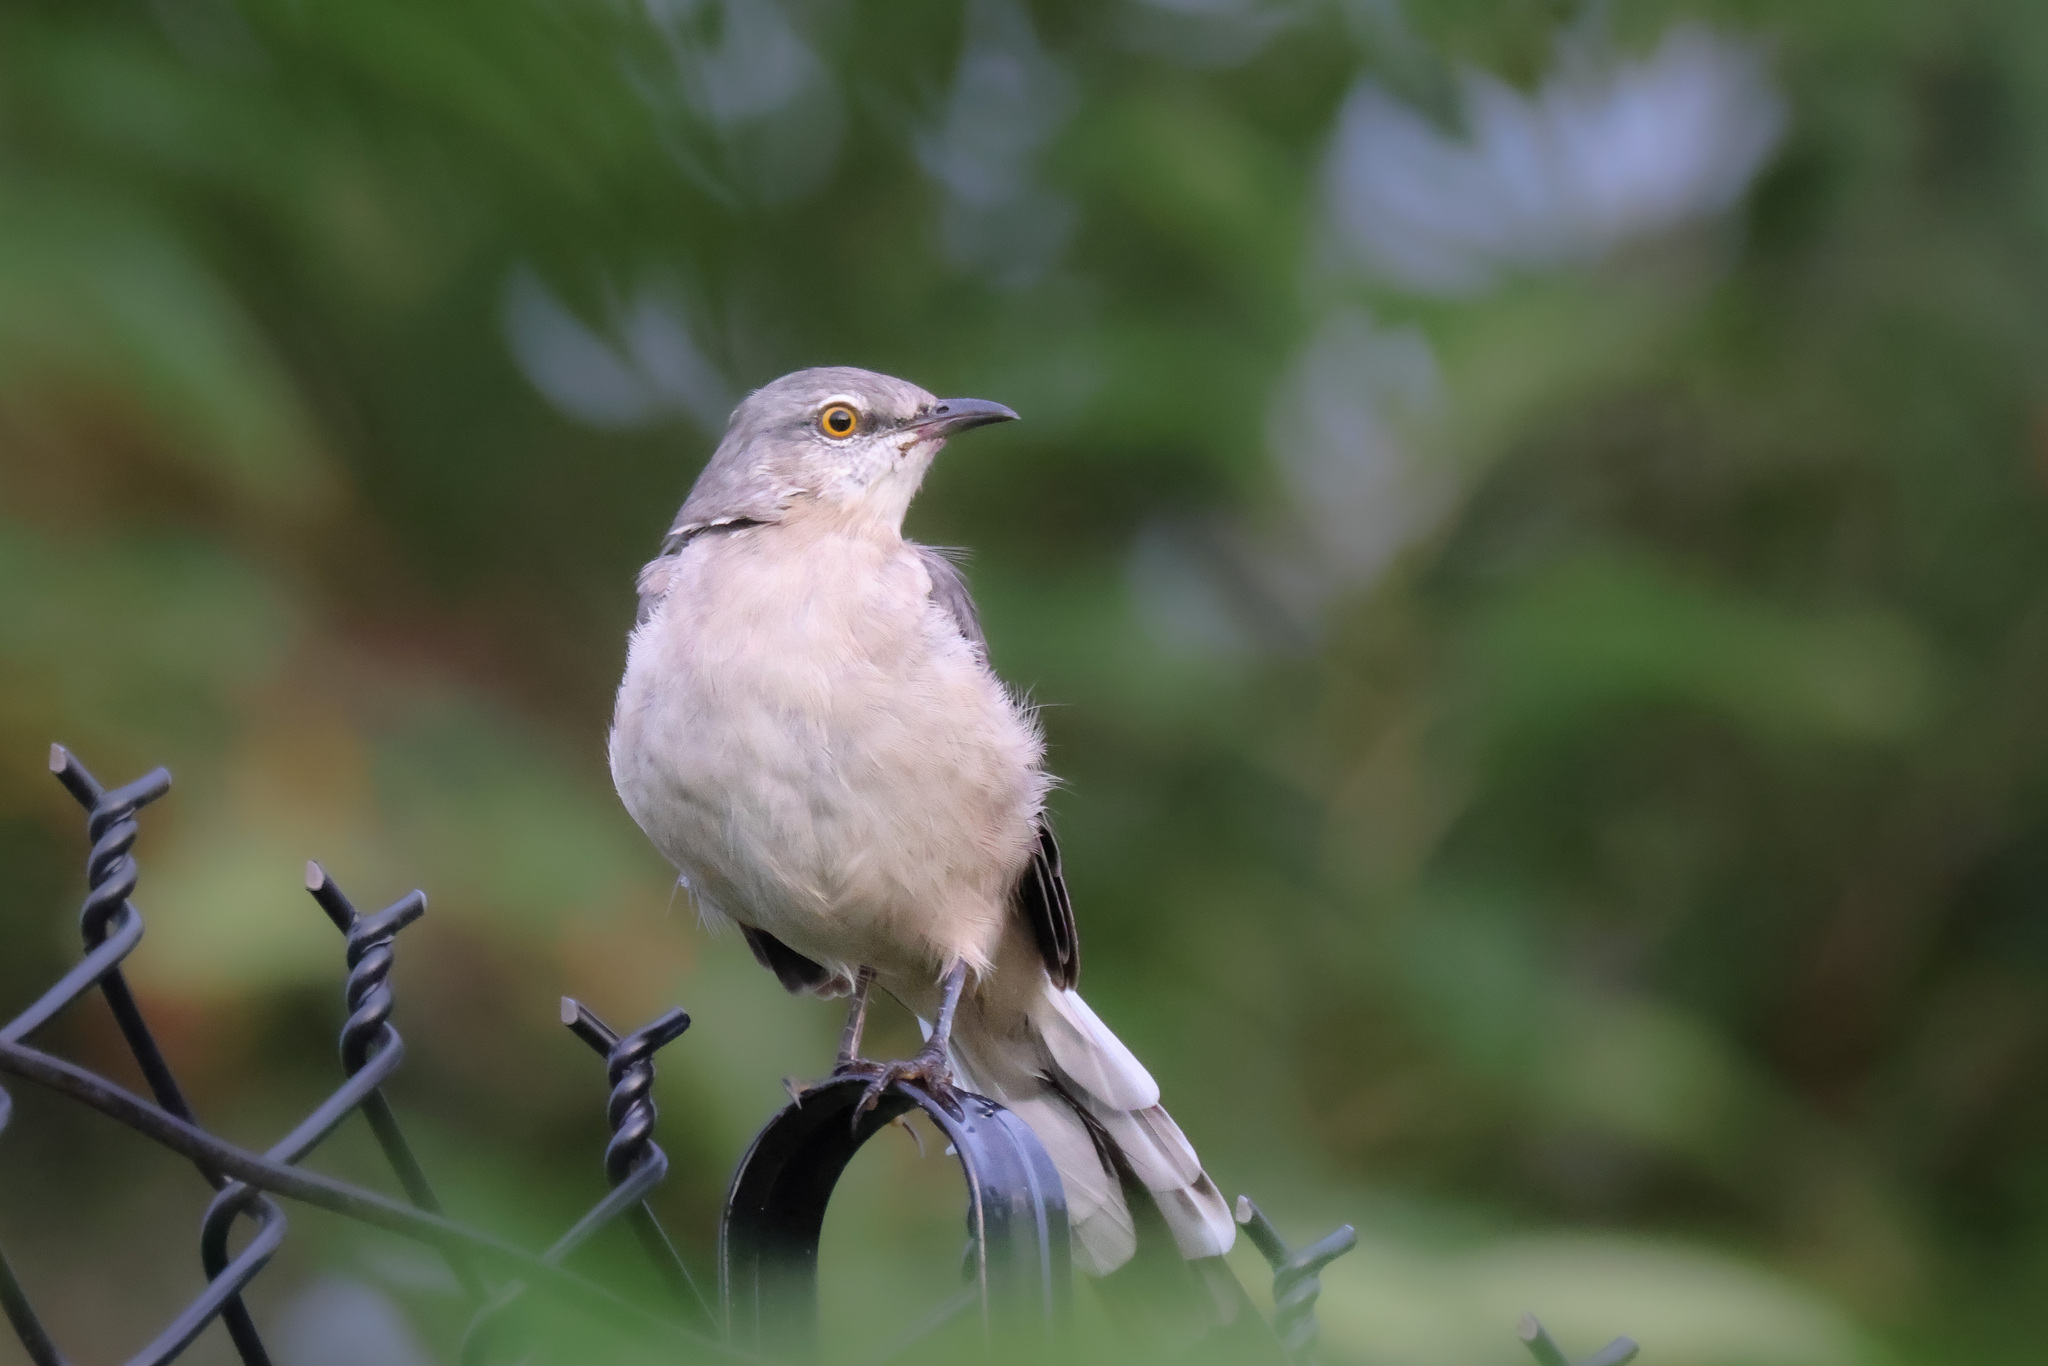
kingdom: Animalia
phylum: Chordata
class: Aves
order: Passeriformes
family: Mimidae
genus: Mimus
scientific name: Mimus polyglottos
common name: Northern mockingbird
